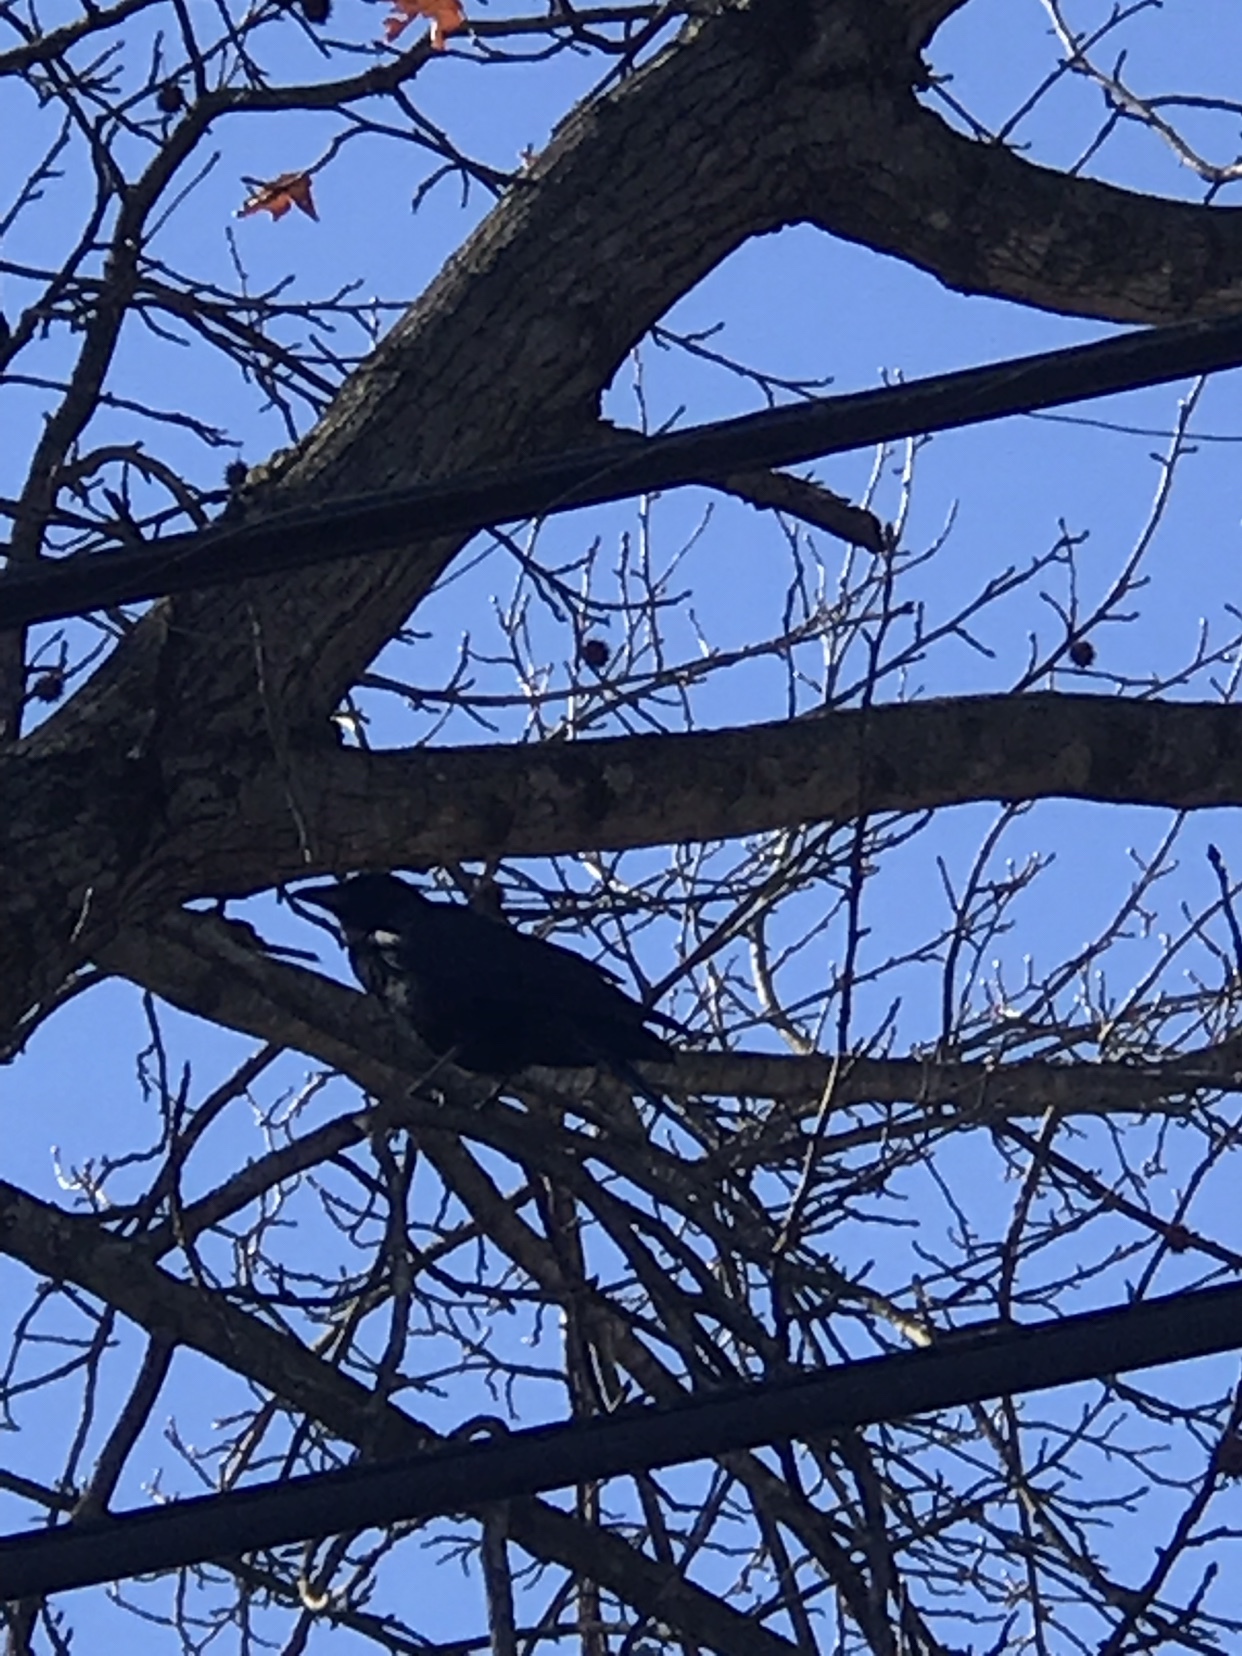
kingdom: Animalia
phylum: Chordata
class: Aves
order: Passeriformes
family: Corvidae
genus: Corvus
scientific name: Corvus brachyrhynchos
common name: American crow
